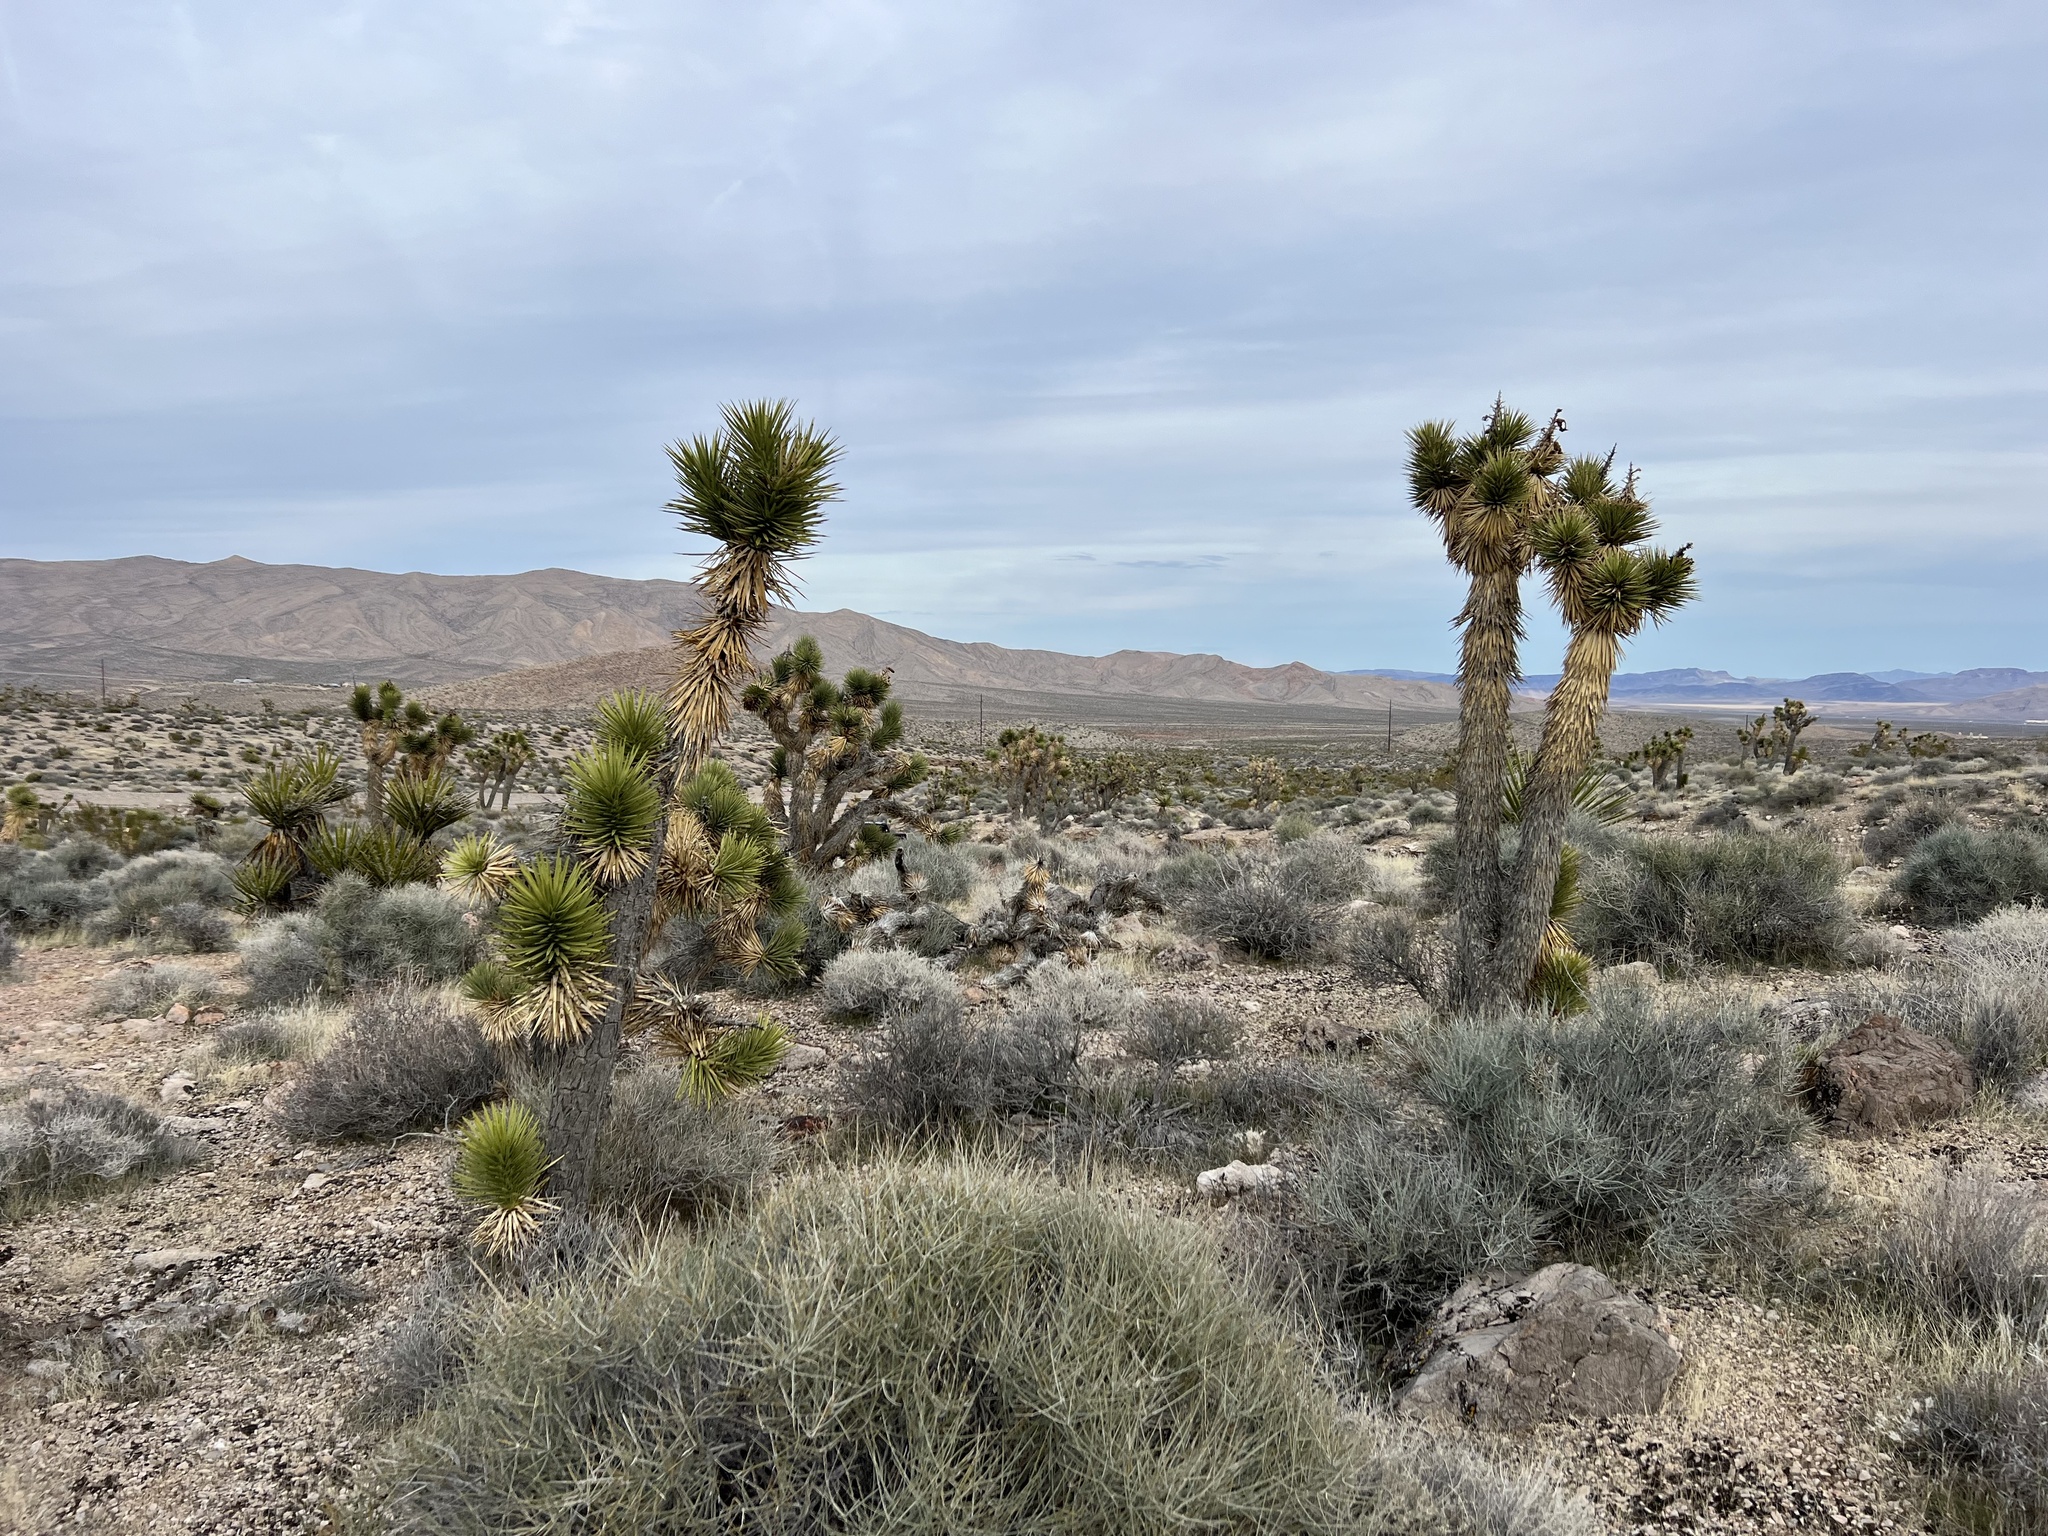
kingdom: Plantae
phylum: Tracheophyta
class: Liliopsida
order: Asparagales
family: Asparagaceae
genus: Yucca
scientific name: Yucca brevifolia
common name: Joshua tree
